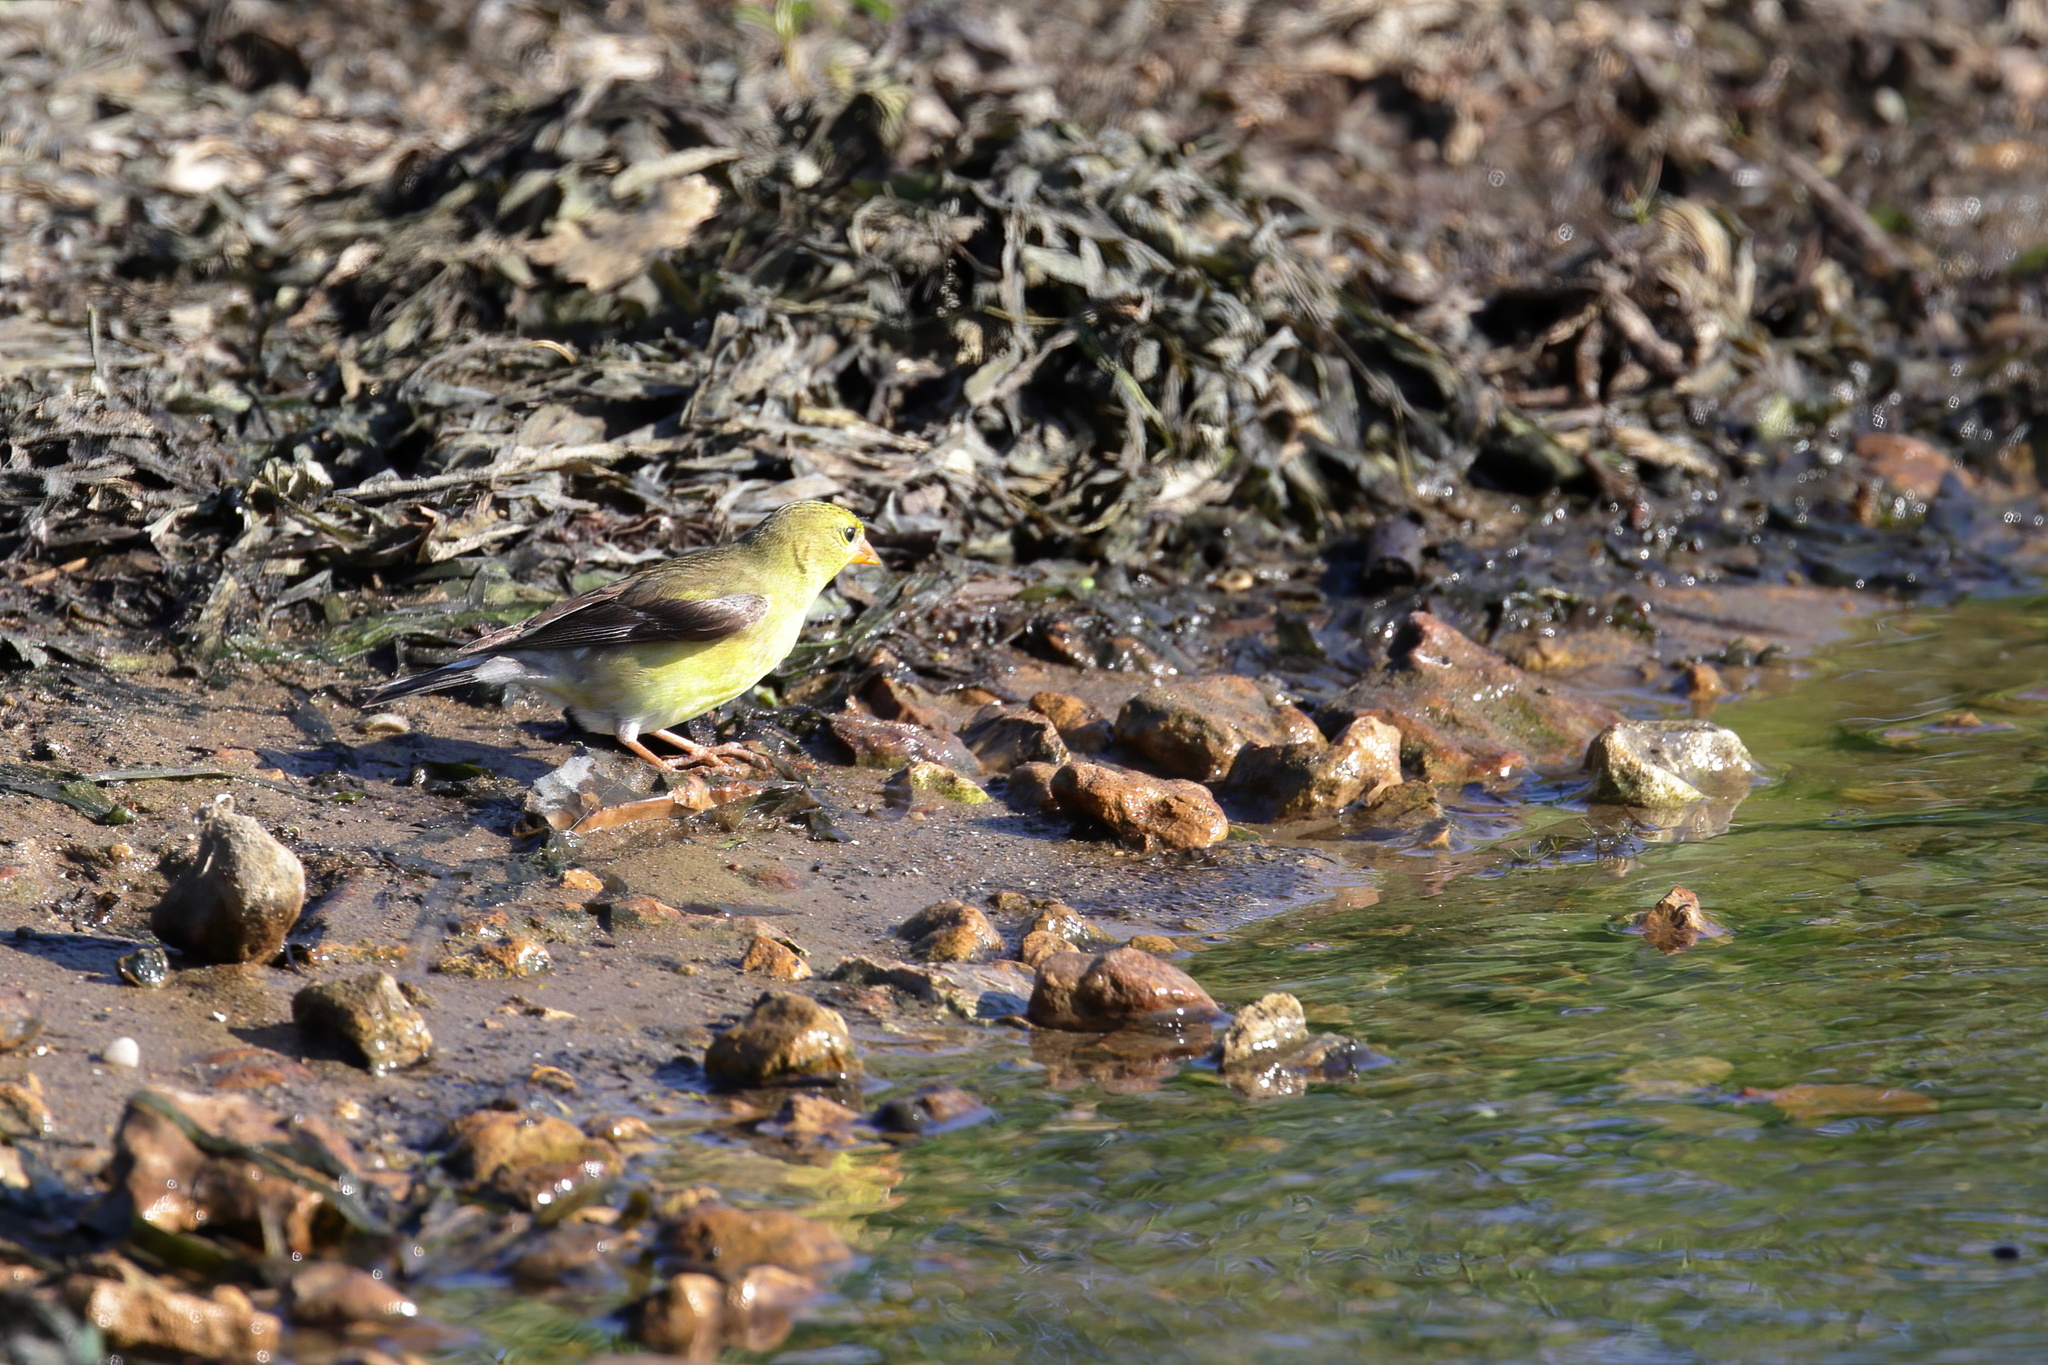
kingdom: Animalia
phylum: Chordata
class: Aves
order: Passeriformes
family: Fringillidae
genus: Spinus
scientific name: Spinus tristis
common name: American goldfinch
